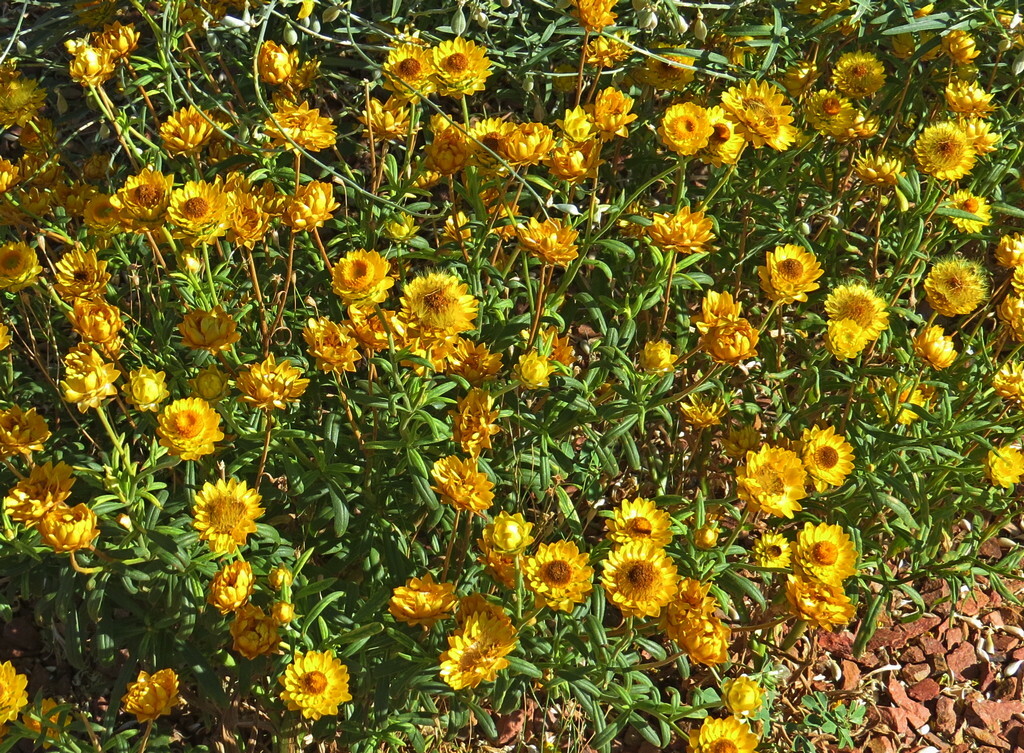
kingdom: Plantae
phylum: Tracheophyta
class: Magnoliopsida
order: Asterales
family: Asteraceae
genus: Xerochrysum
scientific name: Xerochrysum bracteatum
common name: Bracted strawflower
